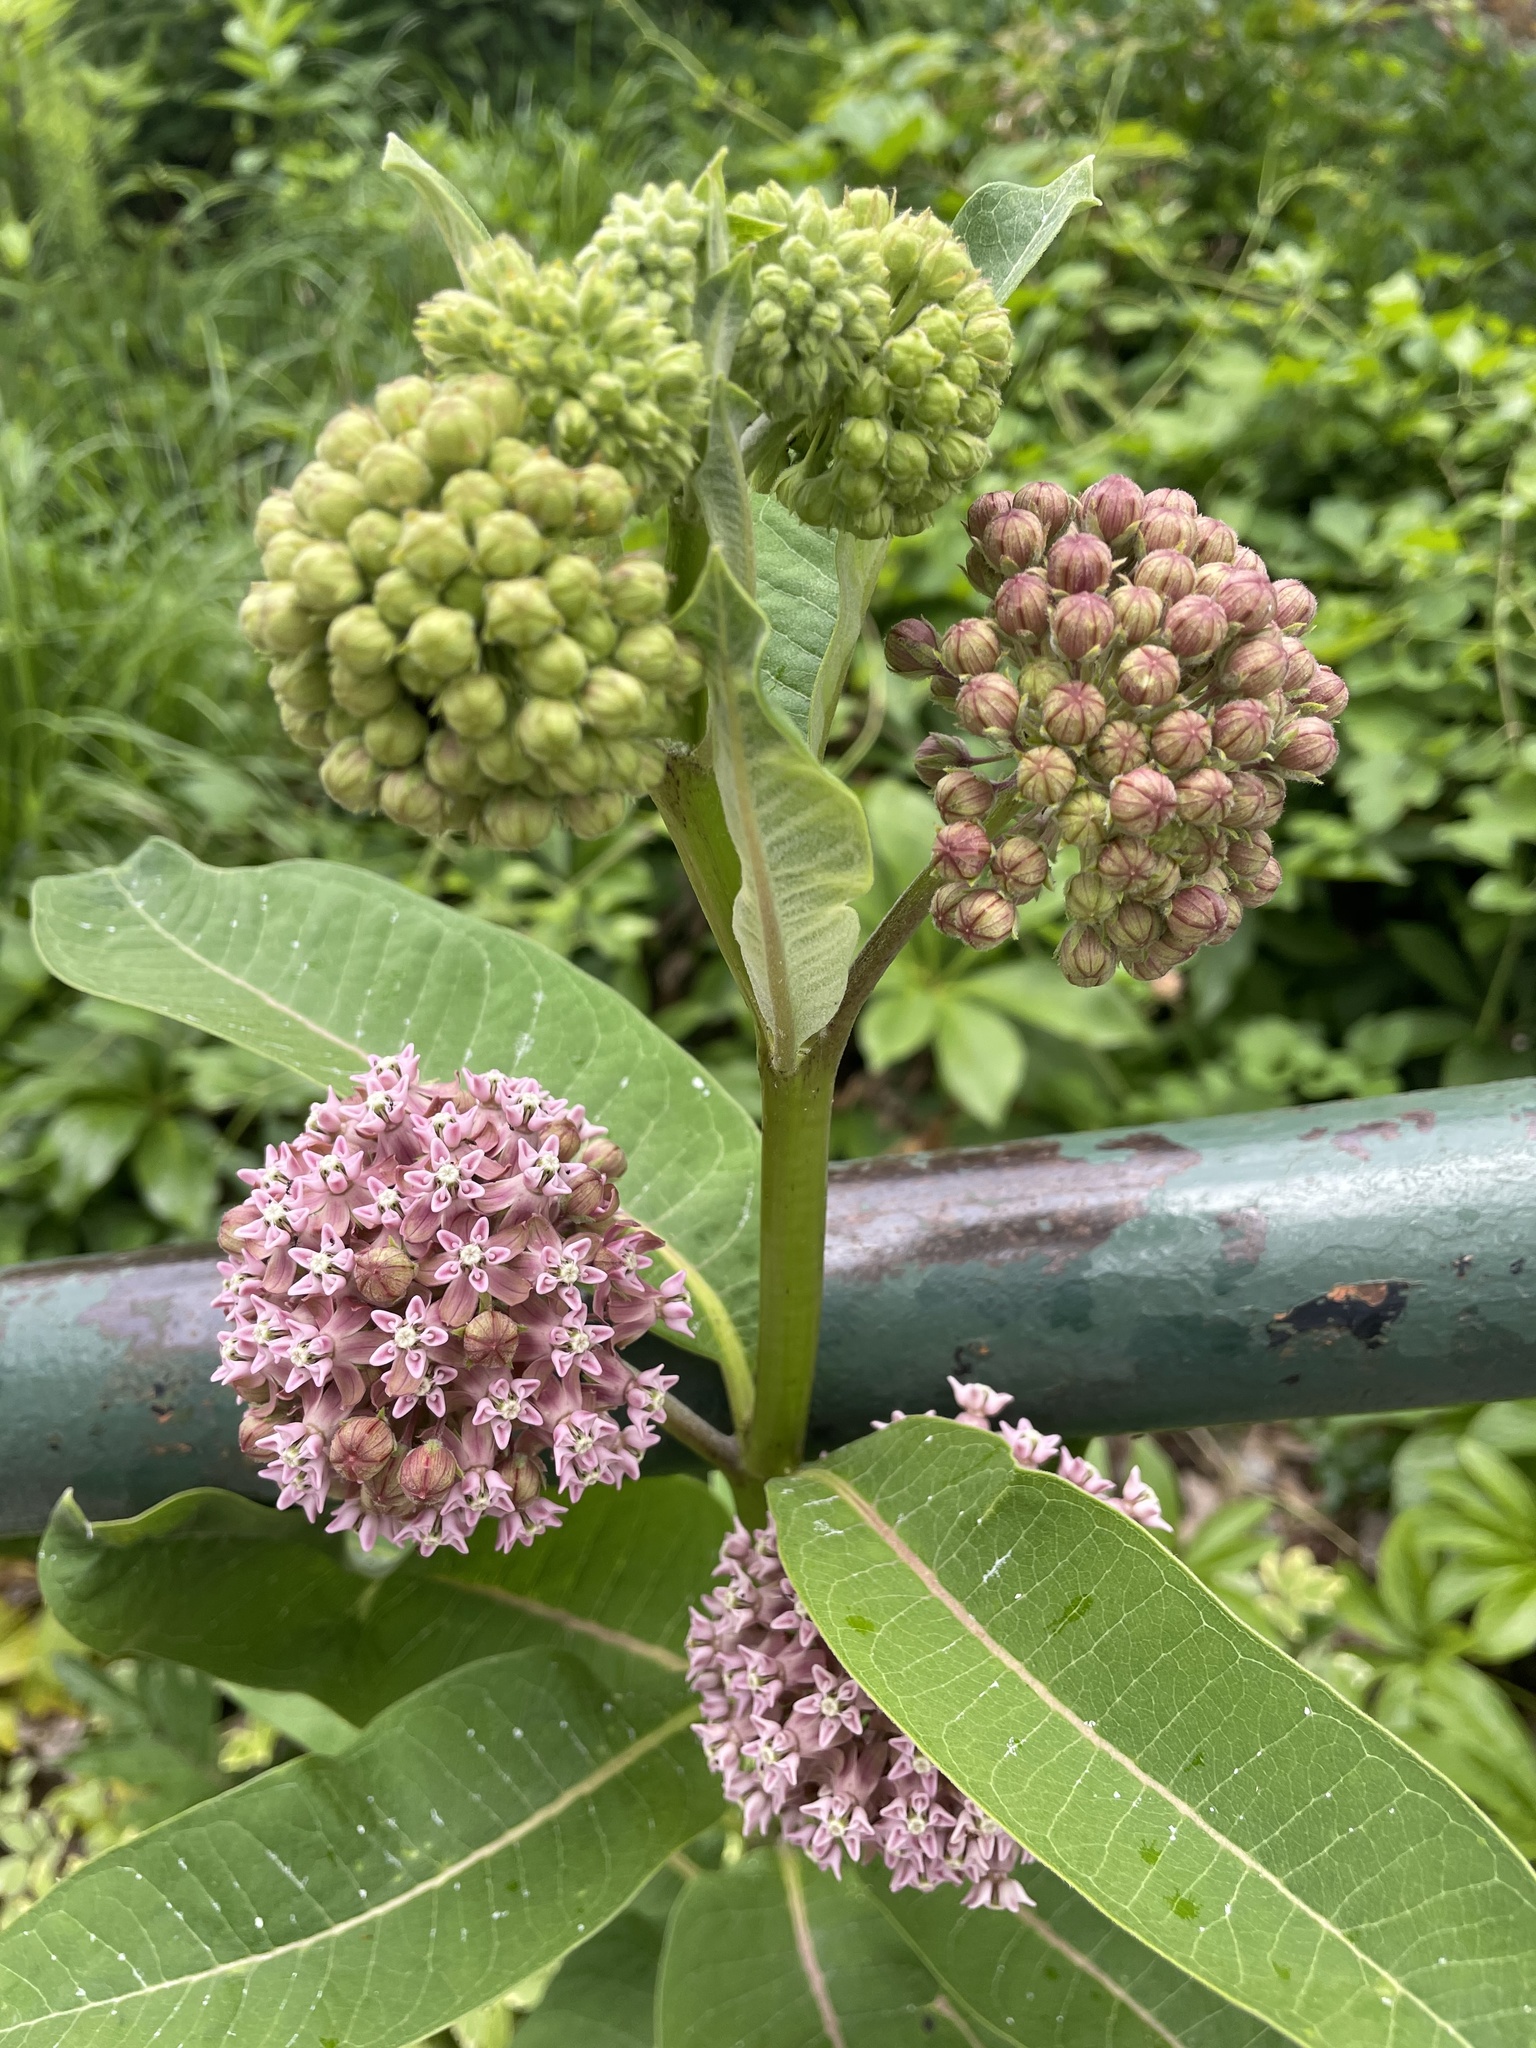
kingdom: Plantae
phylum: Tracheophyta
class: Magnoliopsida
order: Gentianales
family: Apocynaceae
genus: Asclepias
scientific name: Asclepias syriaca
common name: Common milkweed
